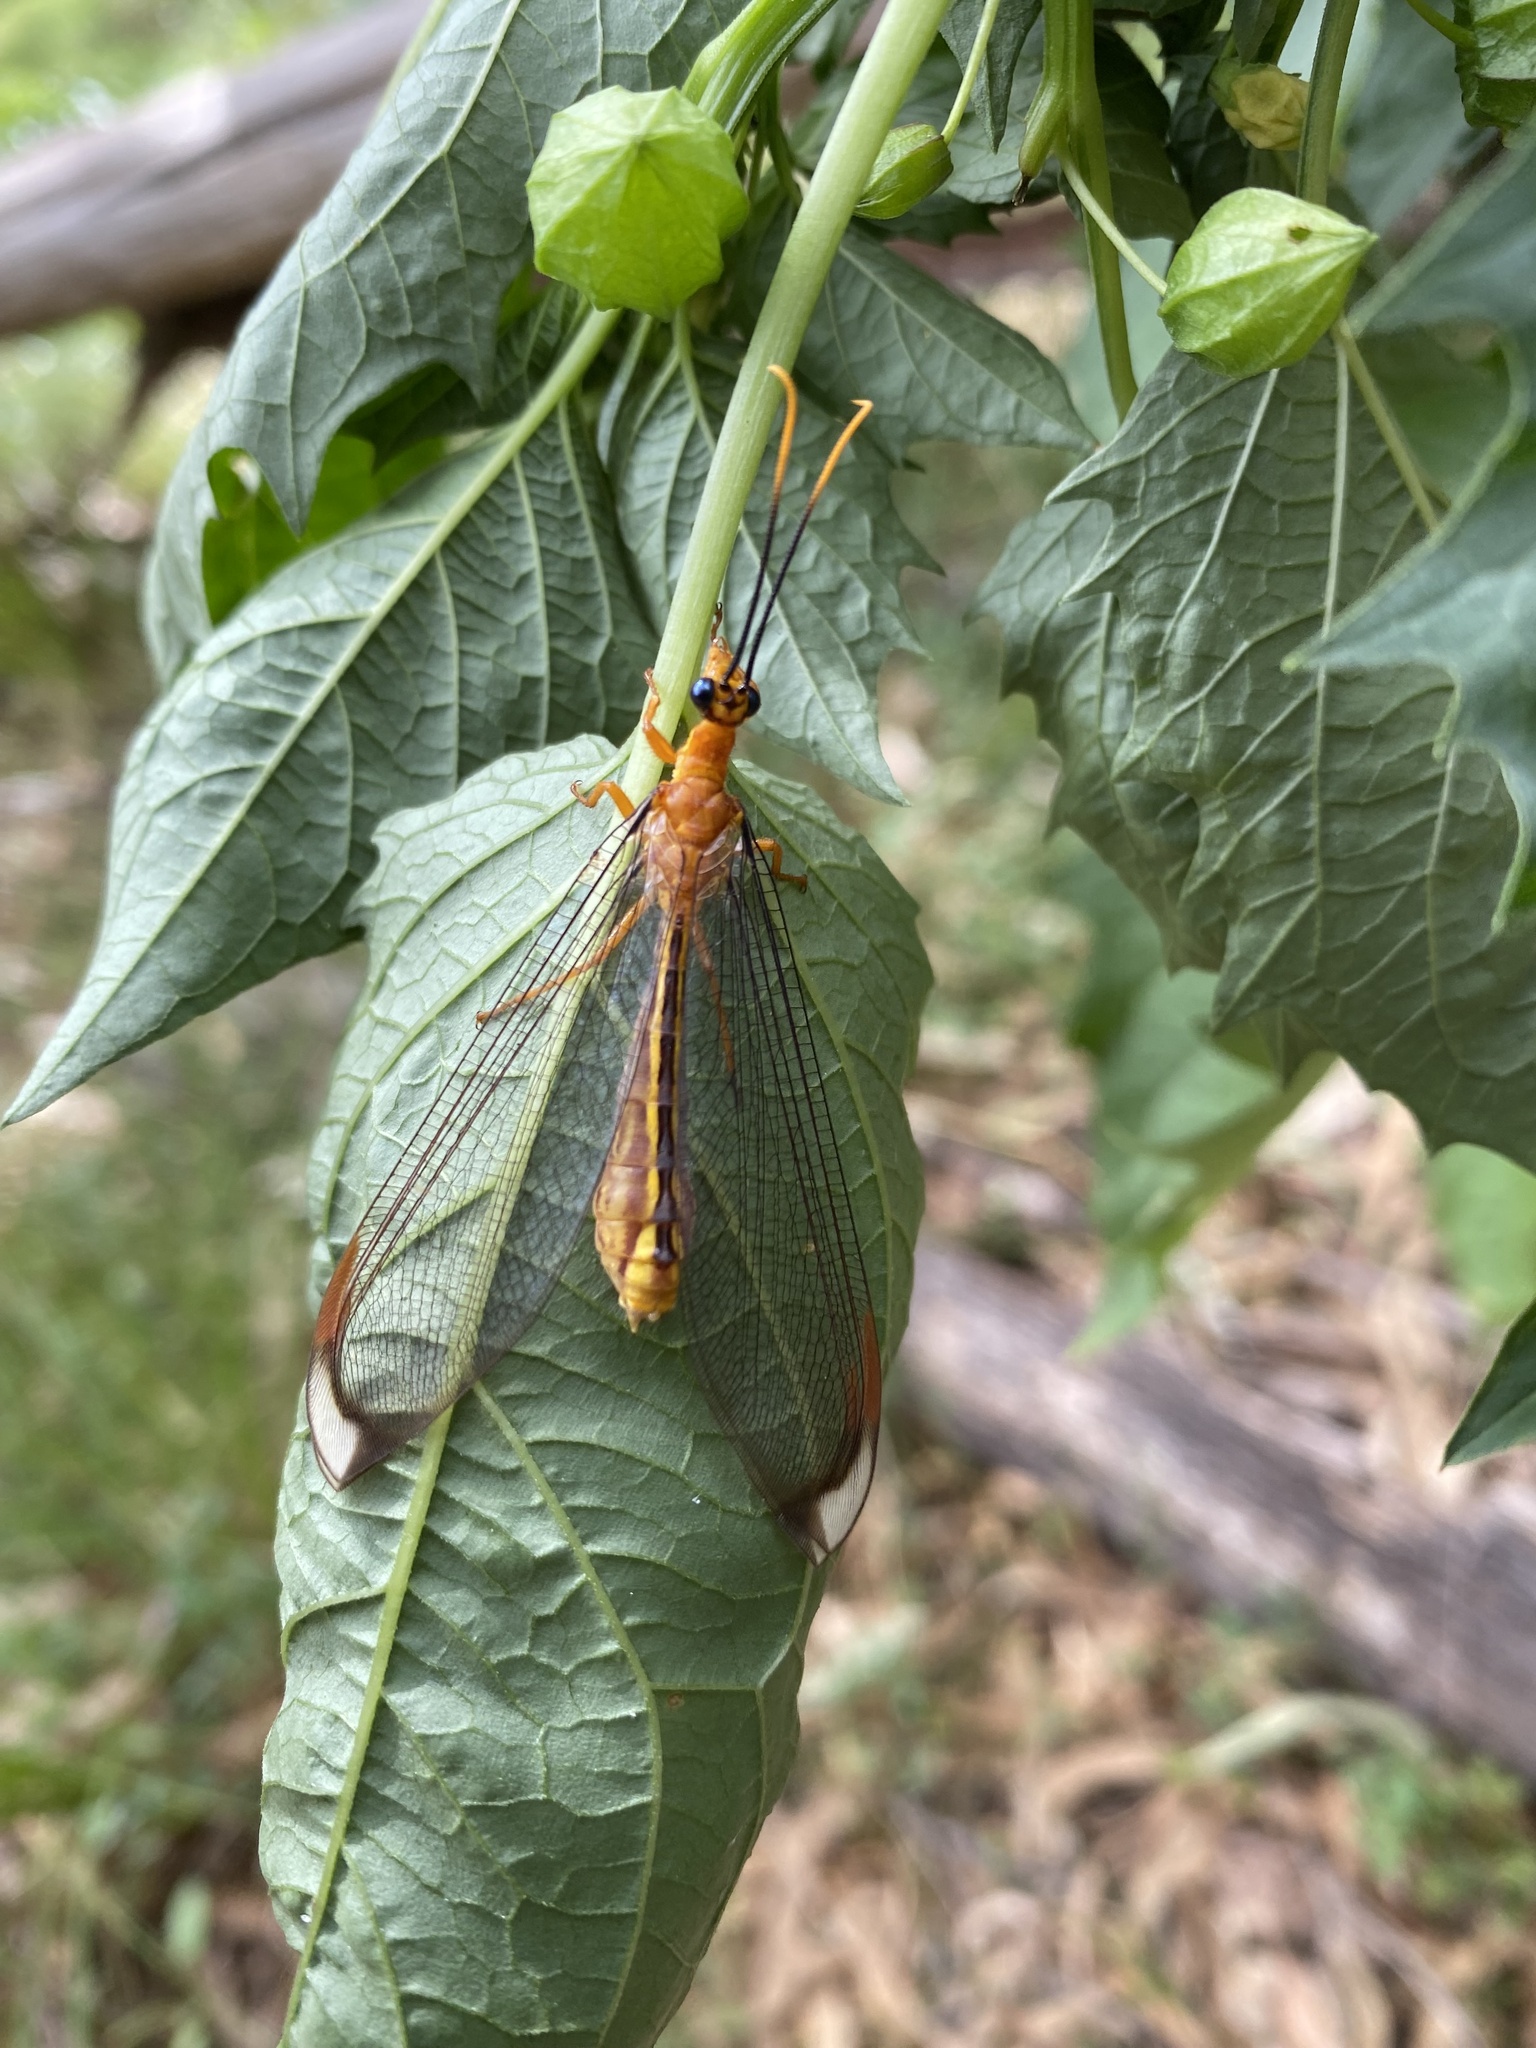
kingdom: Animalia
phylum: Arthropoda
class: Insecta
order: Neuroptera
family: Nymphidae
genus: Nymphes
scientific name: Nymphes myrmeleonoides
